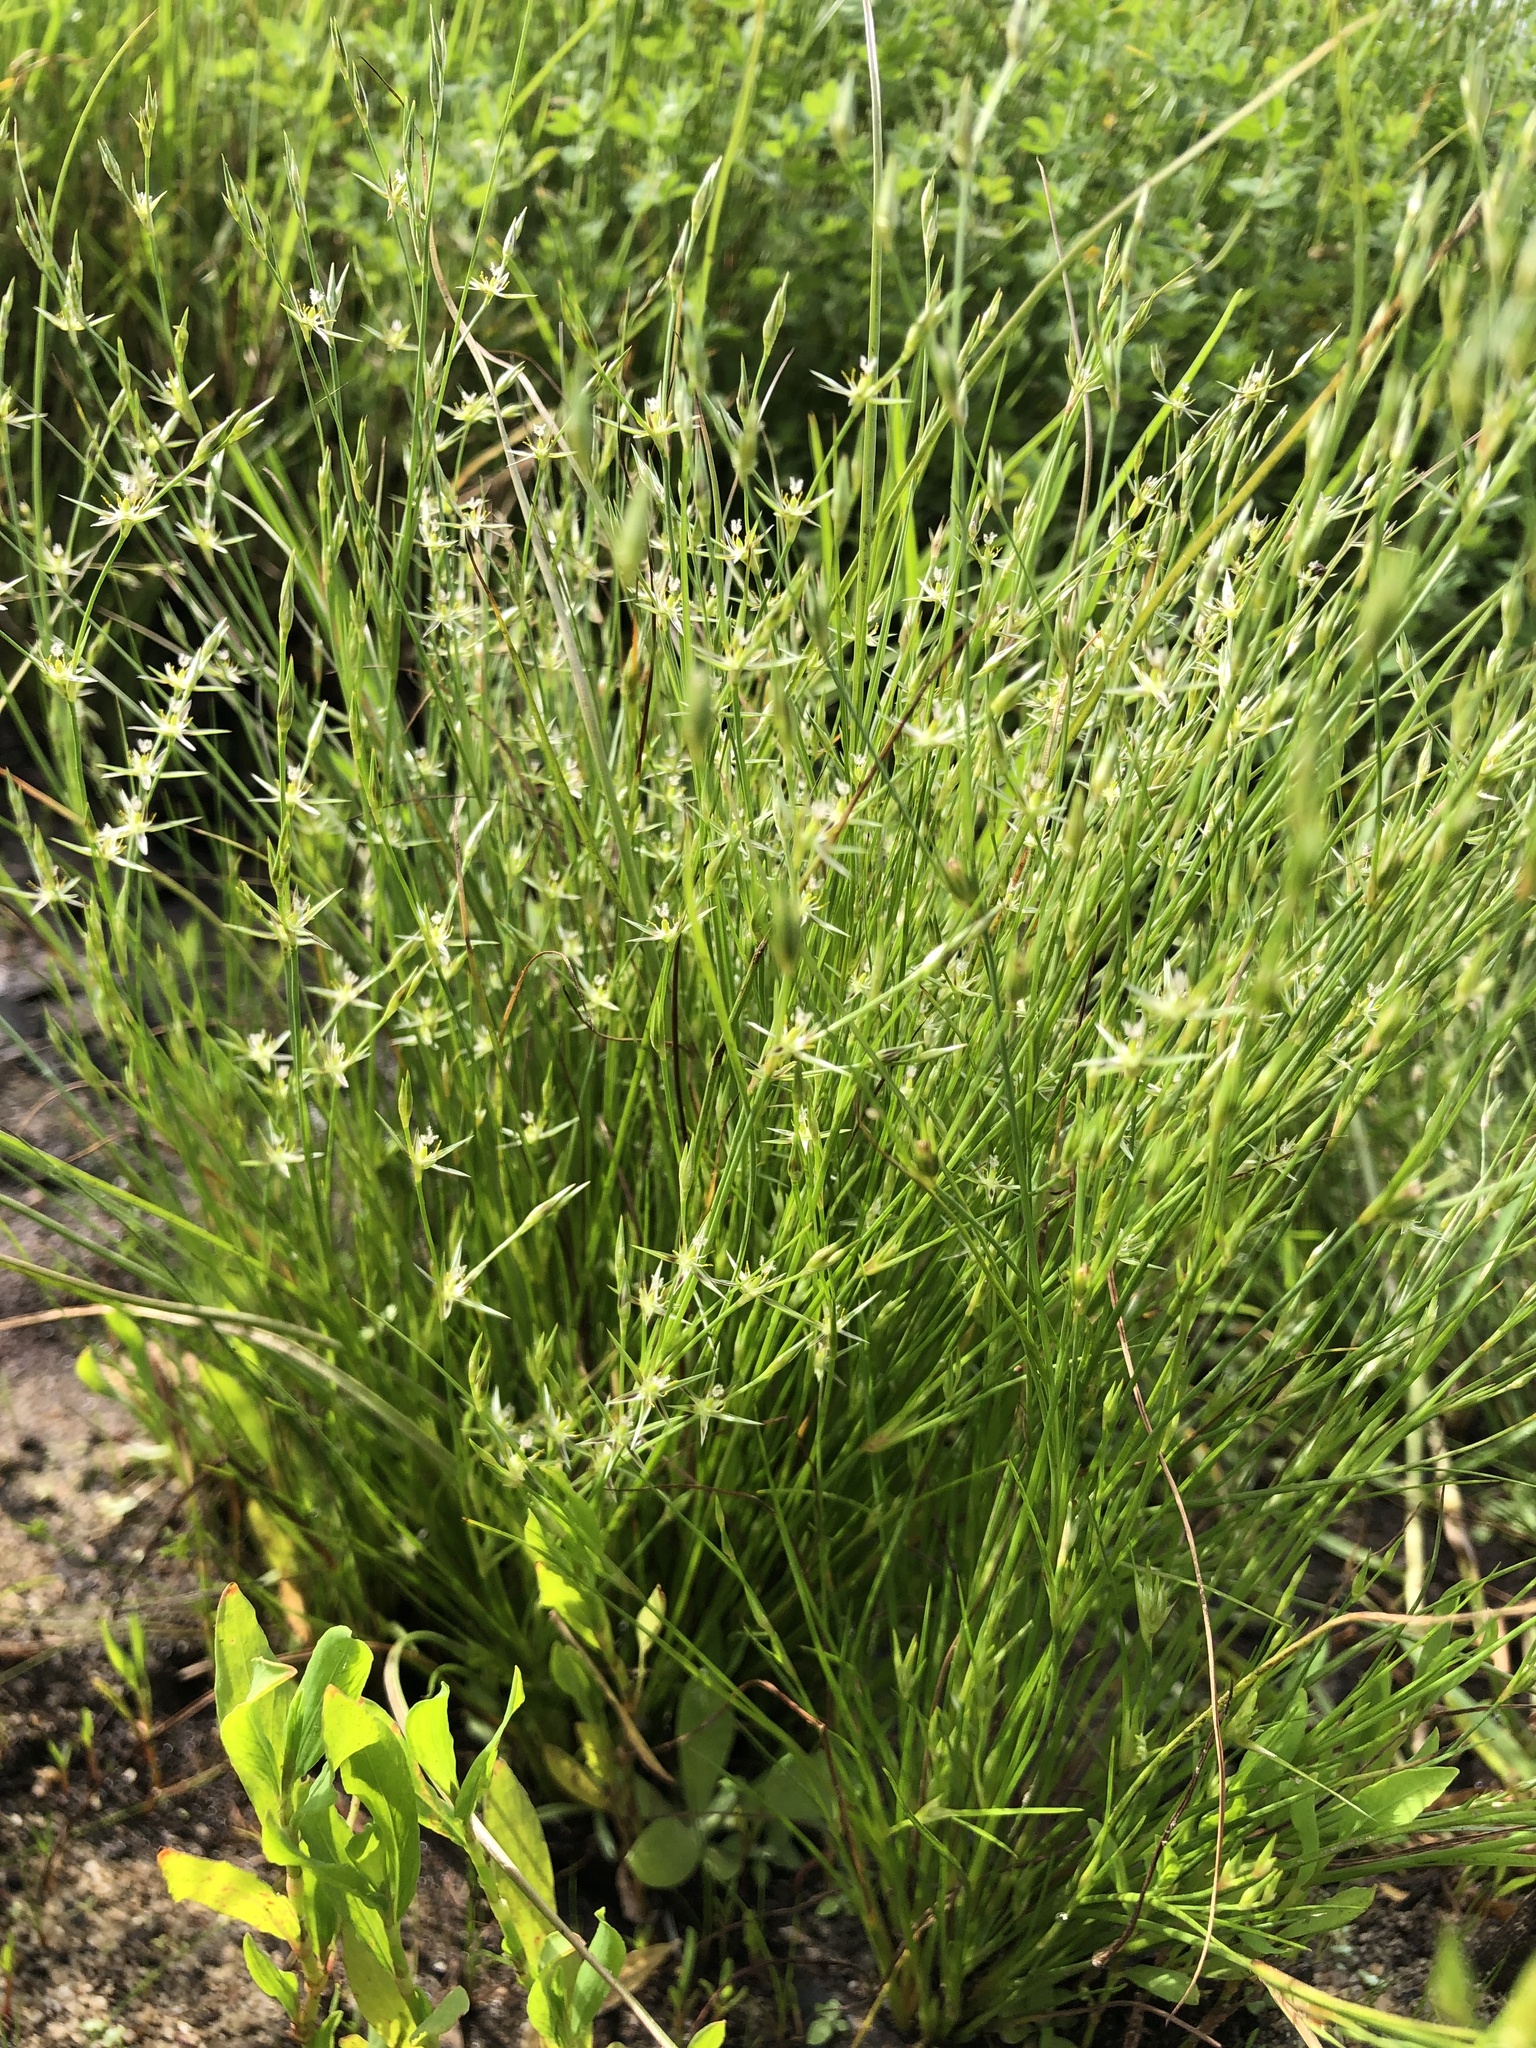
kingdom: Plantae
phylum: Tracheophyta
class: Liliopsida
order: Poales
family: Juncaceae
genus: Juncus
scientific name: Juncus bufonius
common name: Toad rush
